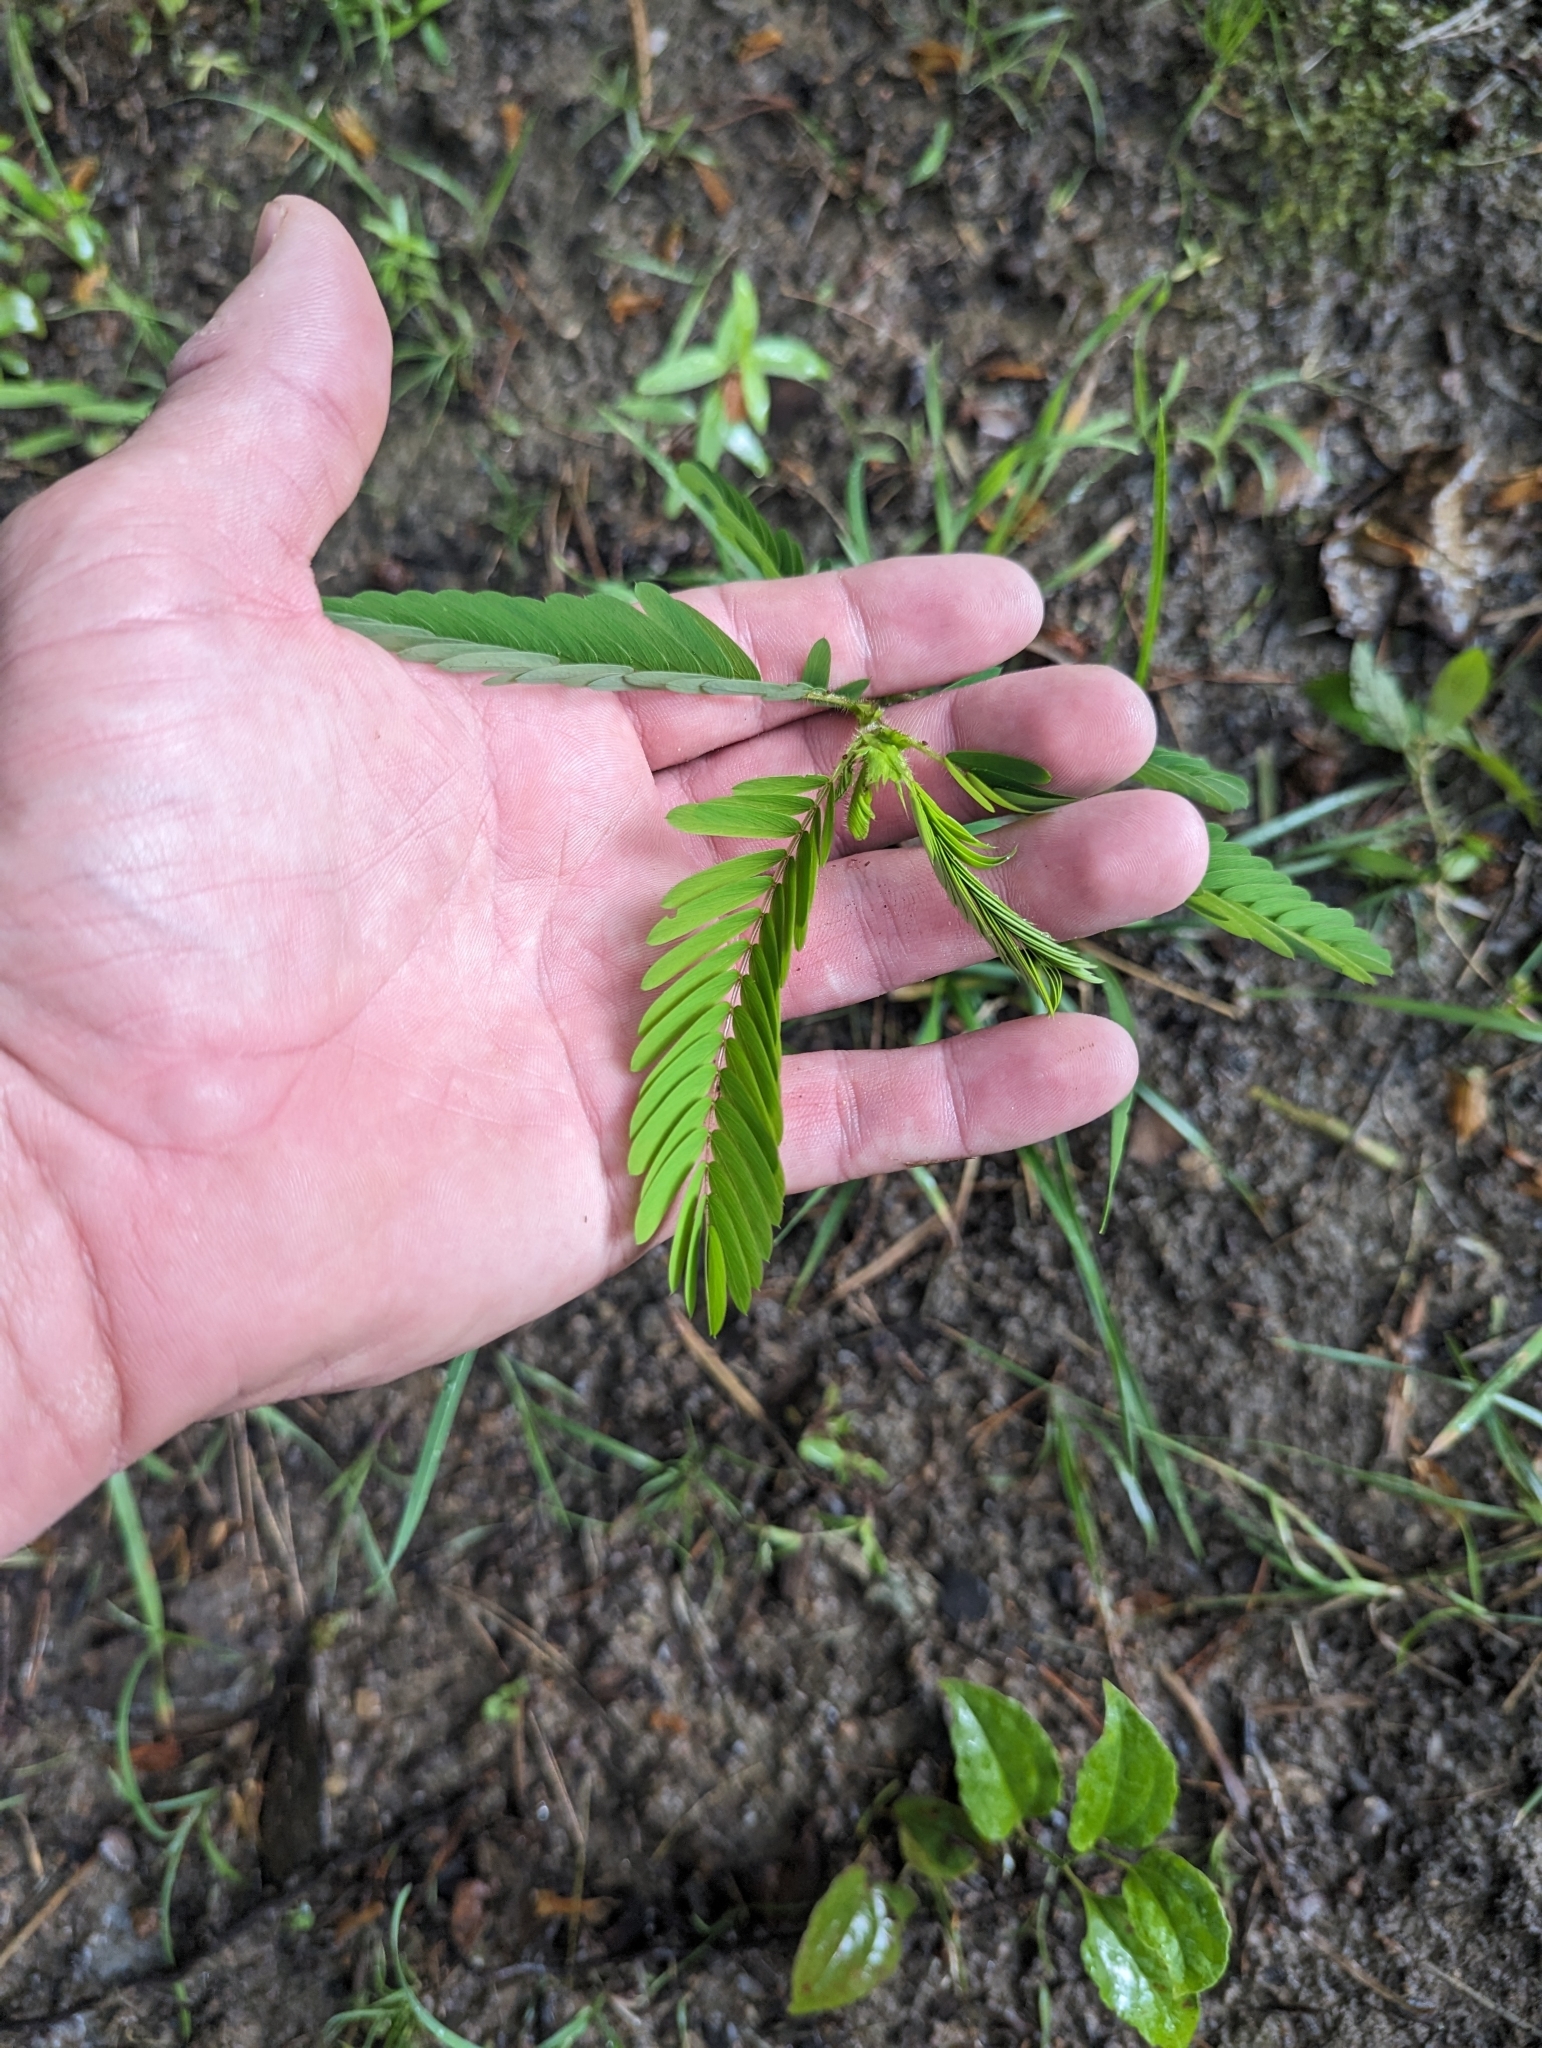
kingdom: Plantae
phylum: Tracheophyta
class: Magnoliopsida
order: Fabales
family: Fabaceae
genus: Albizia
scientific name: Albizia julibrissin
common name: Silktree
